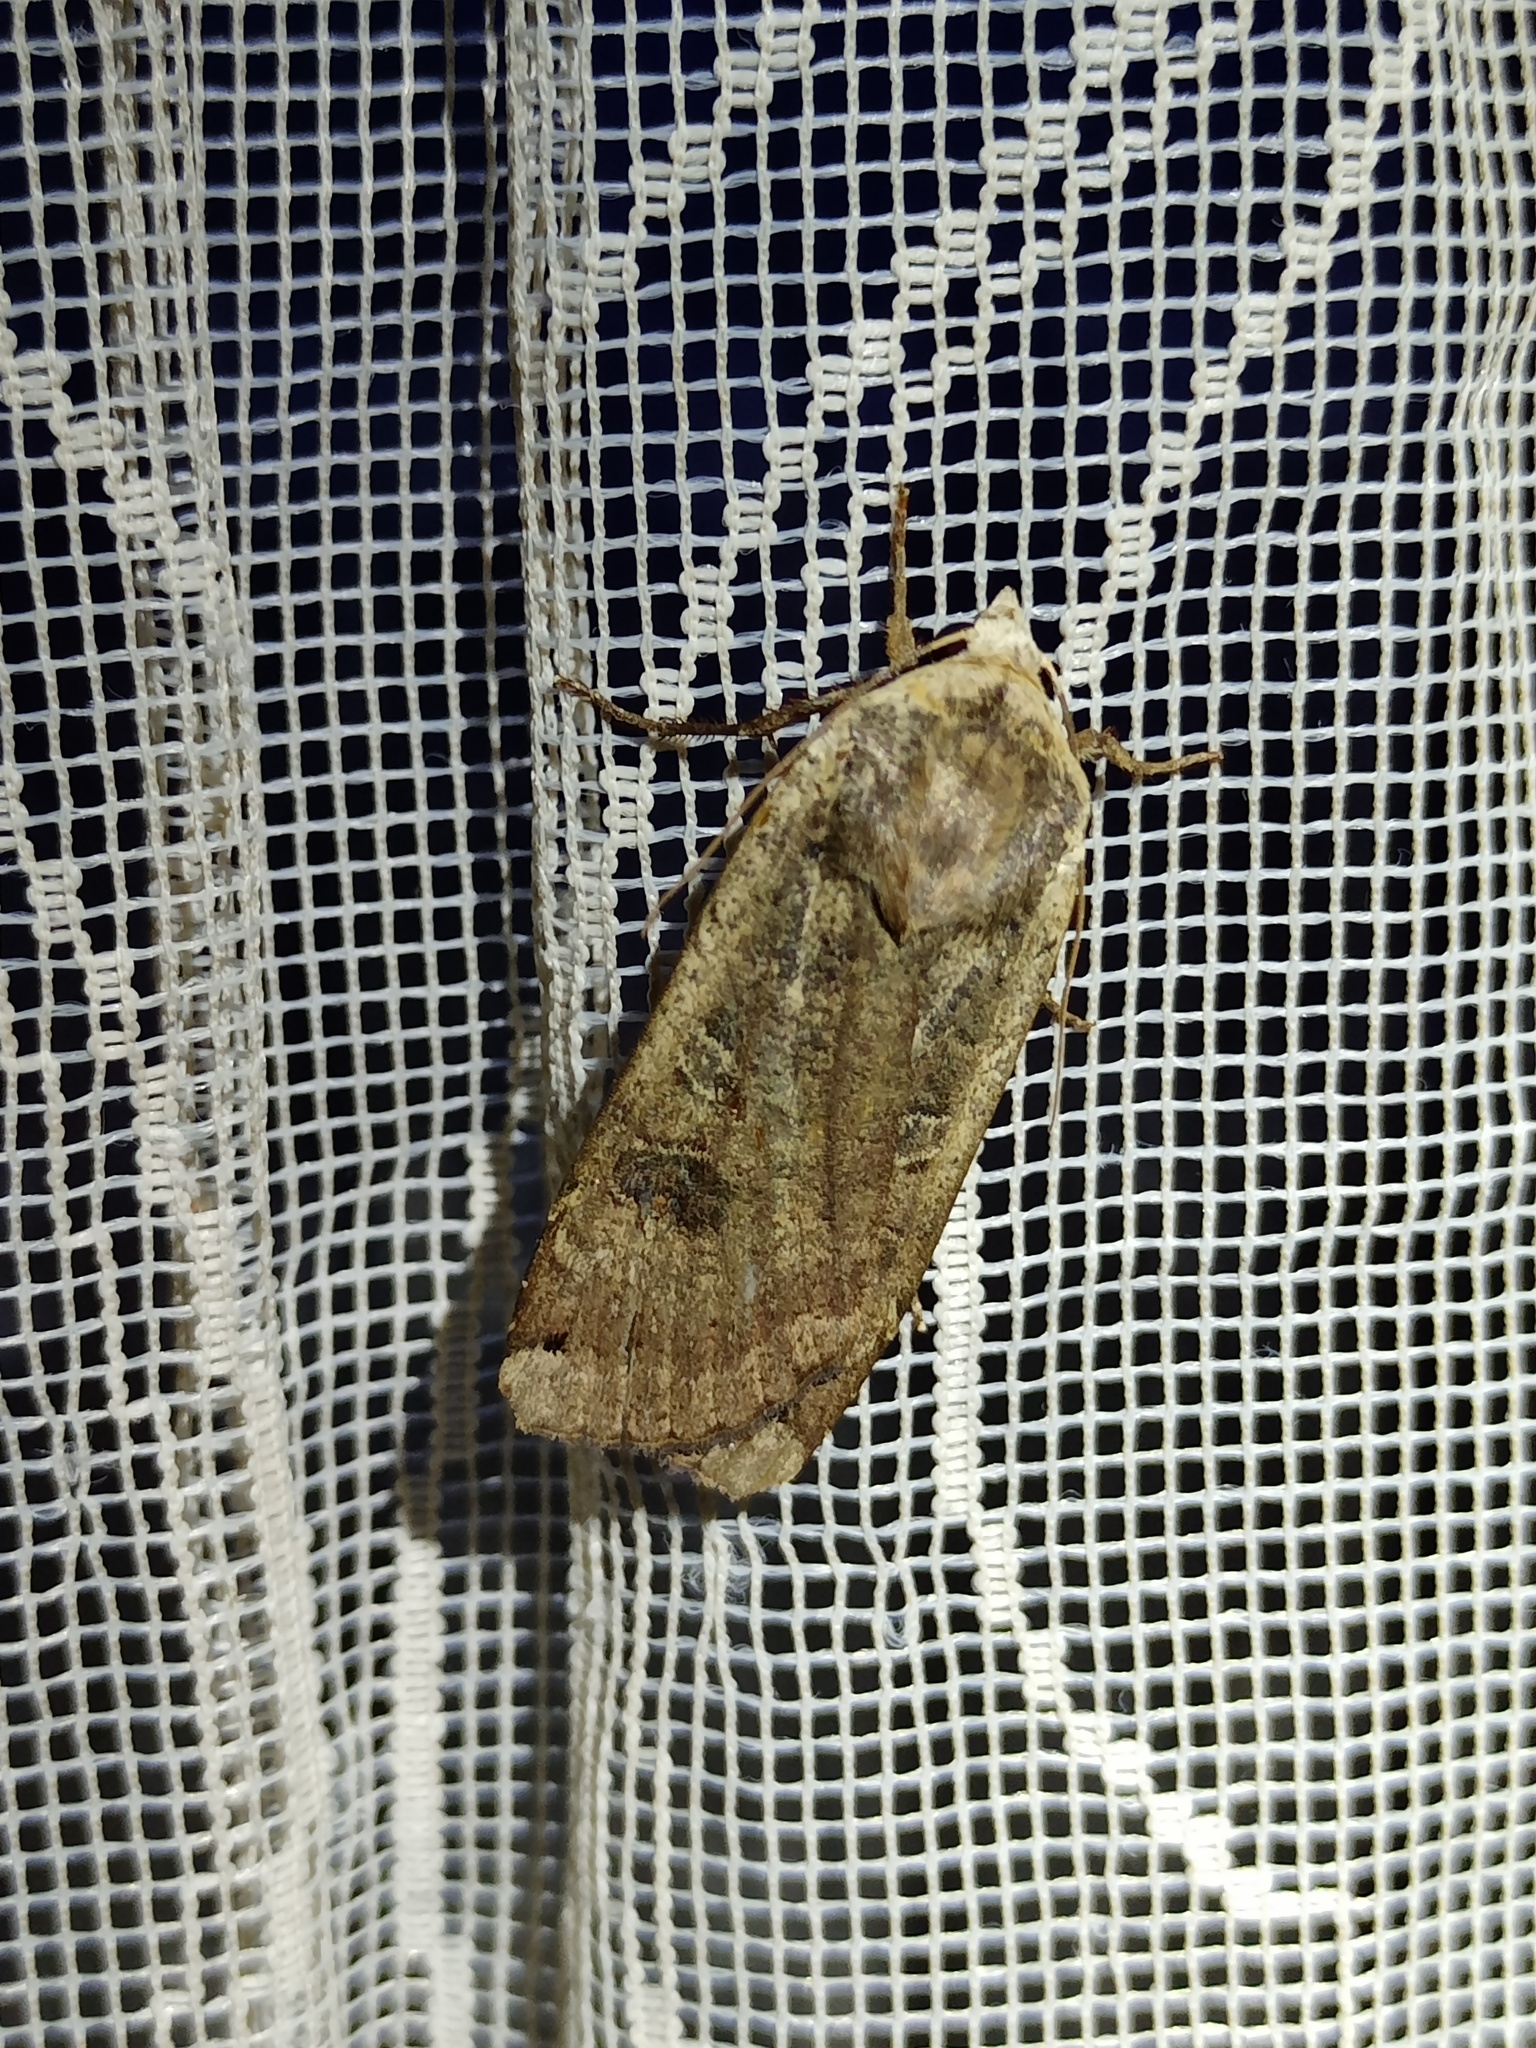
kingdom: Animalia
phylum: Arthropoda
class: Insecta
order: Lepidoptera
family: Noctuidae
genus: Noctua
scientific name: Noctua pronuba
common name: Large yellow underwing
